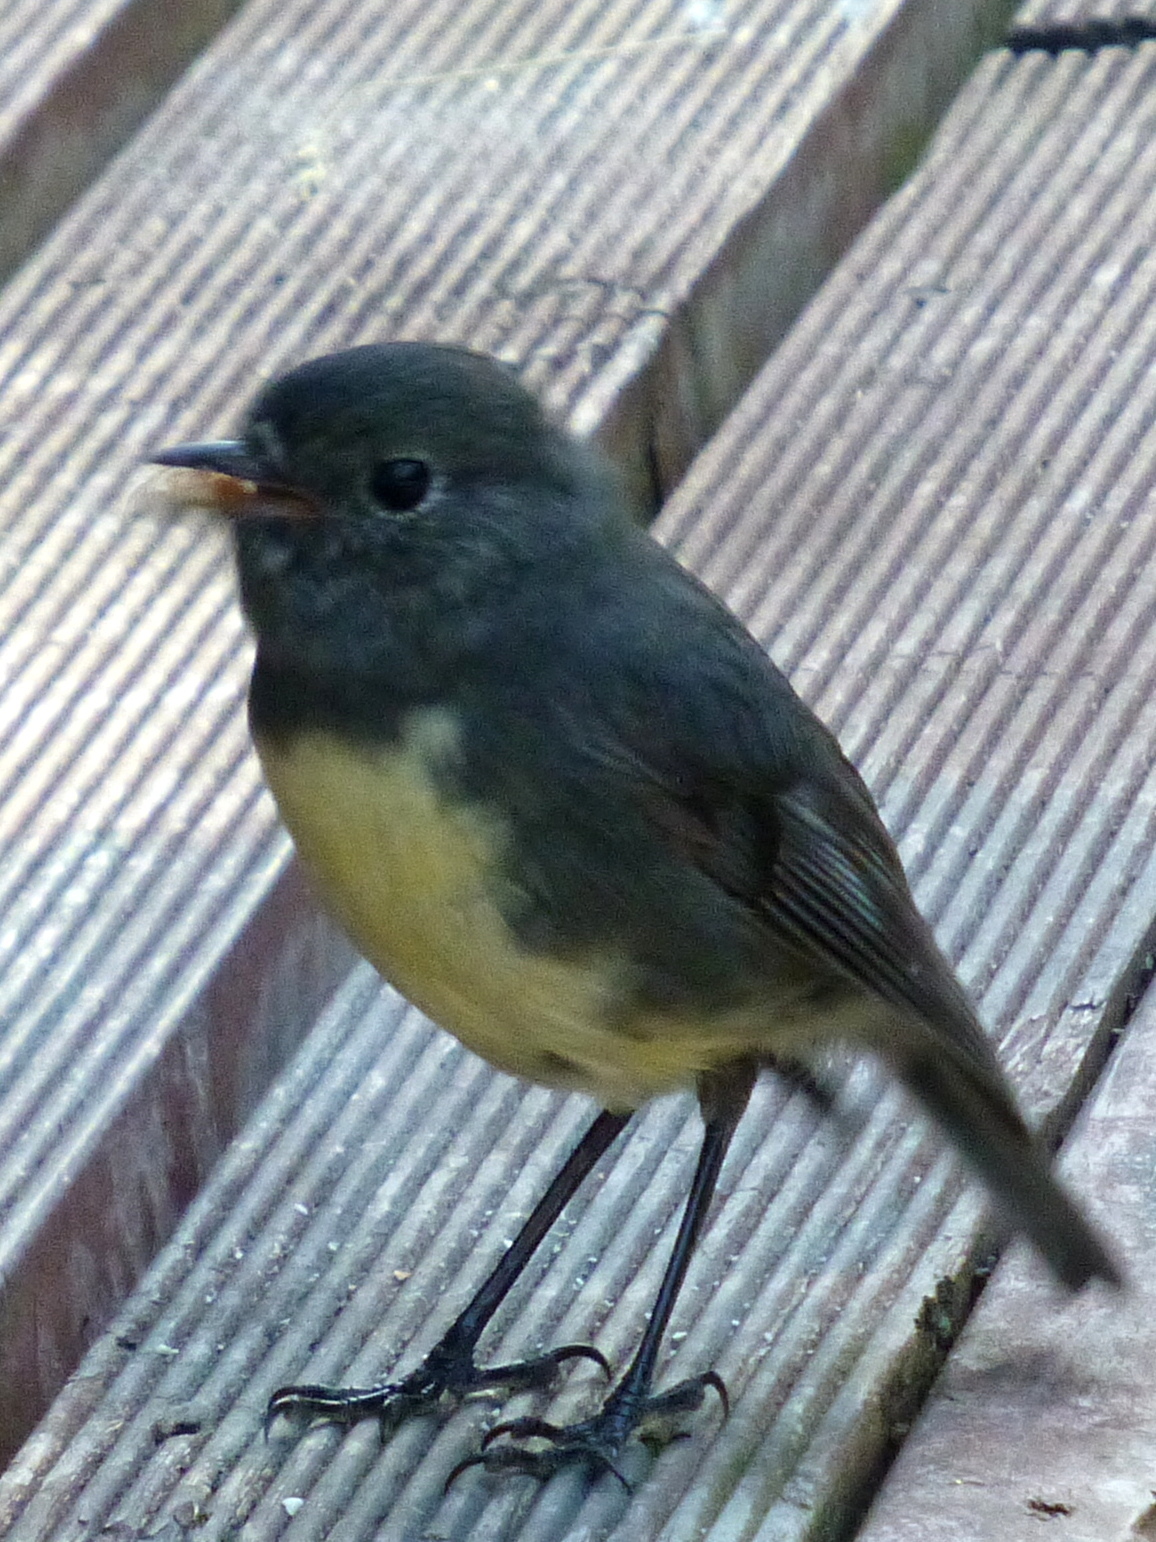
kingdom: Animalia
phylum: Chordata
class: Aves
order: Passeriformes
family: Petroicidae
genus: Petroica
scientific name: Petroica australis
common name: New zealand robin
